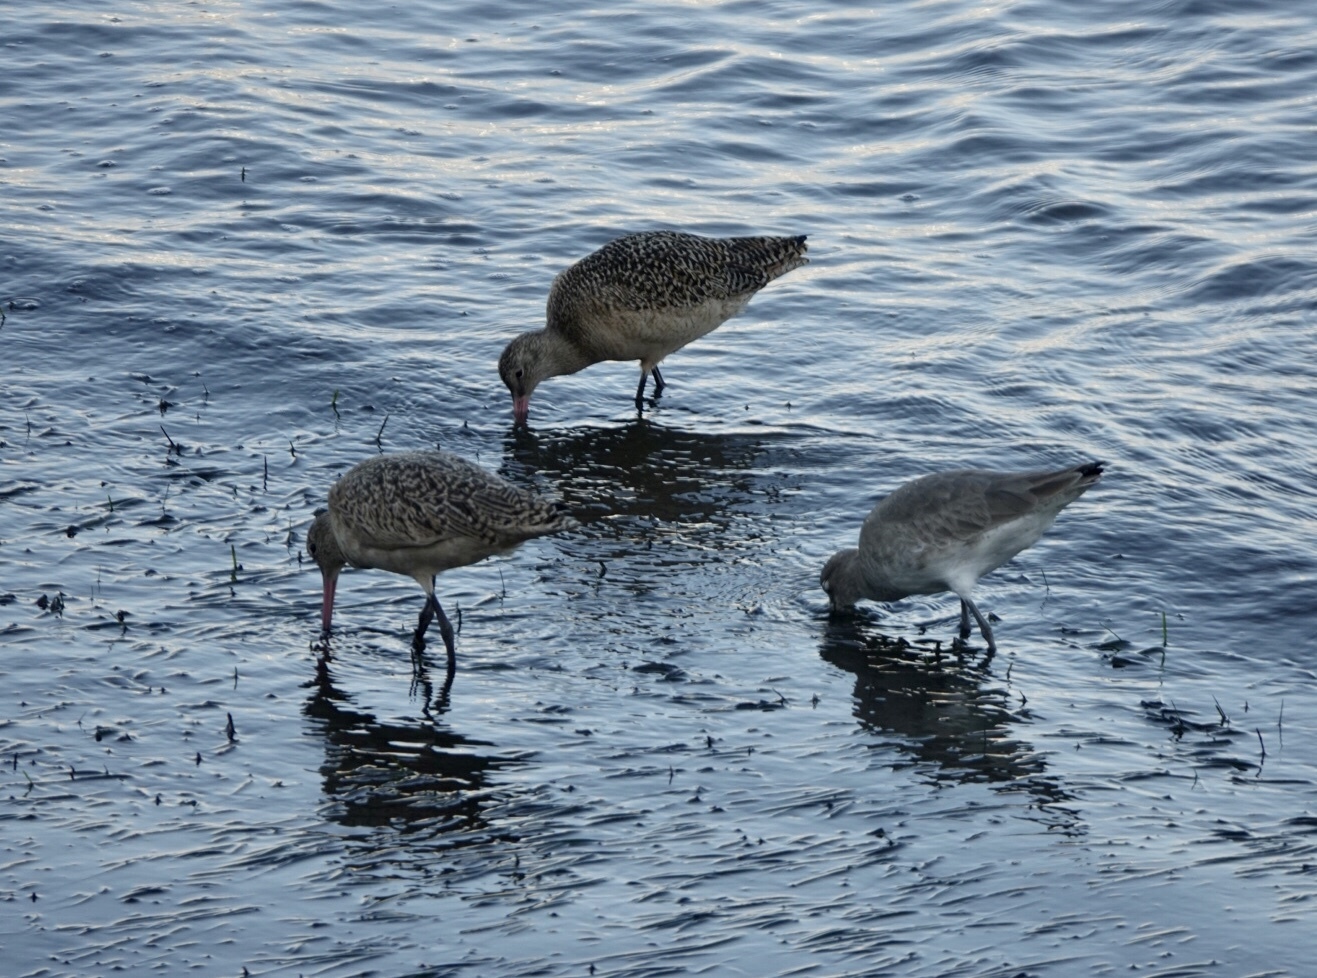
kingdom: Animalia
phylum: Chordata
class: Aves
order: Charadriiformes
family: Scolopacidae
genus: Limosa
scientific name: Limosa fedoa
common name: Marbled godwit
